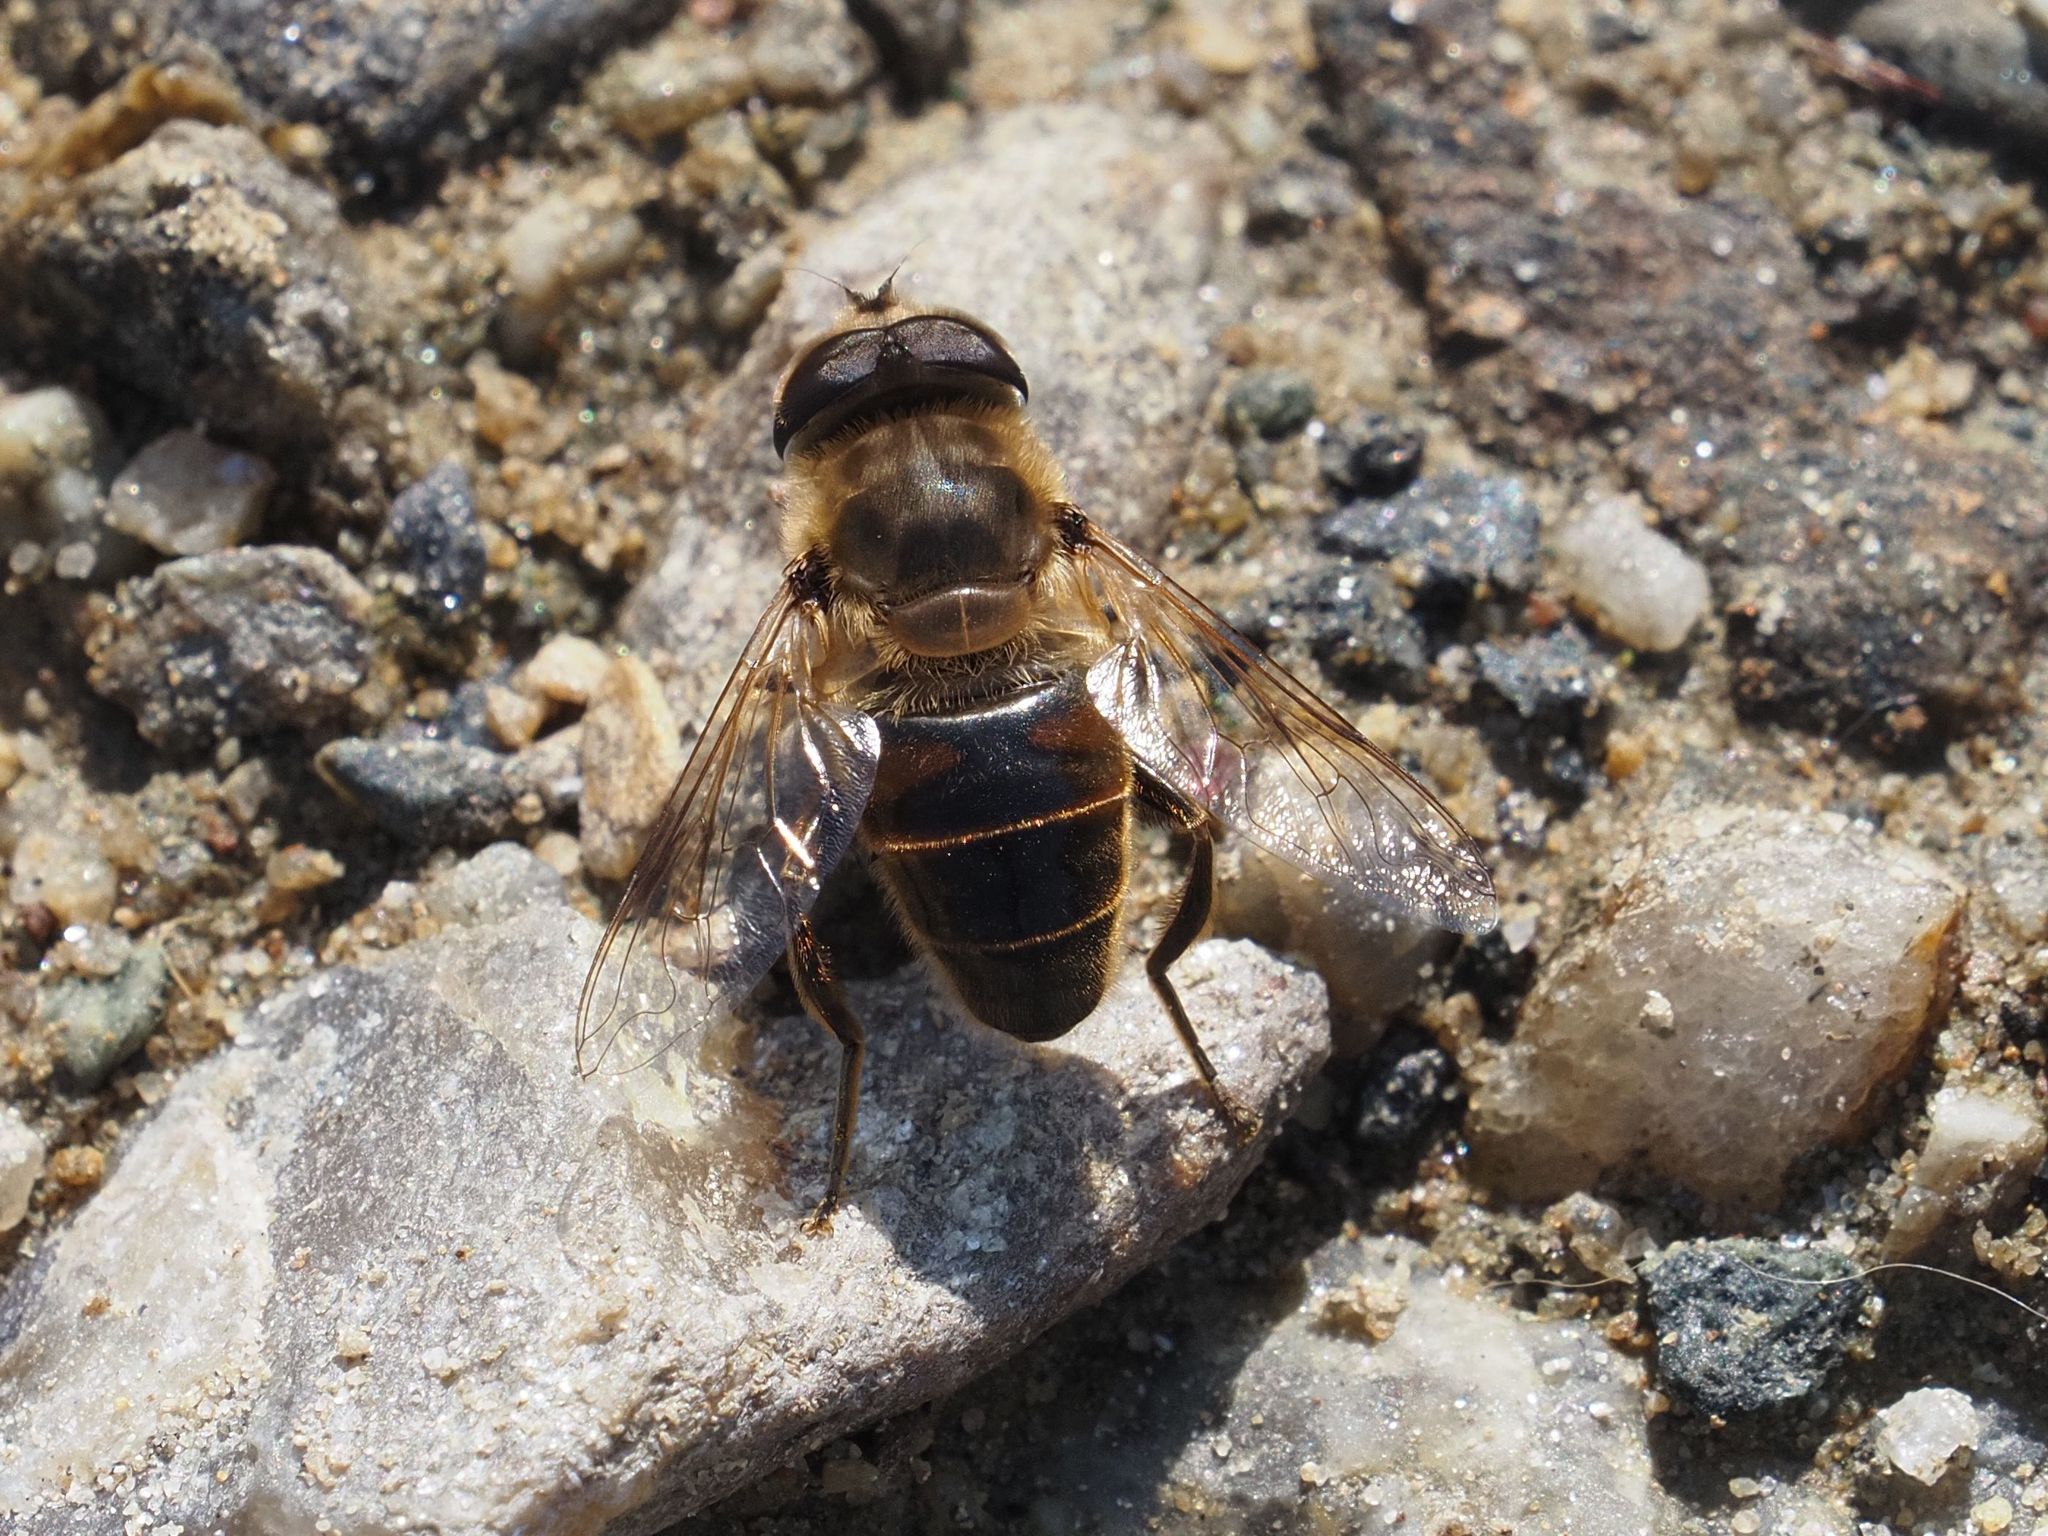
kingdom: Animalia
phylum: Arthropoda
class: Insecta
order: Diptera
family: Syrphidae
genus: Eristalis
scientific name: Eristalis tenax
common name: Drone fly
